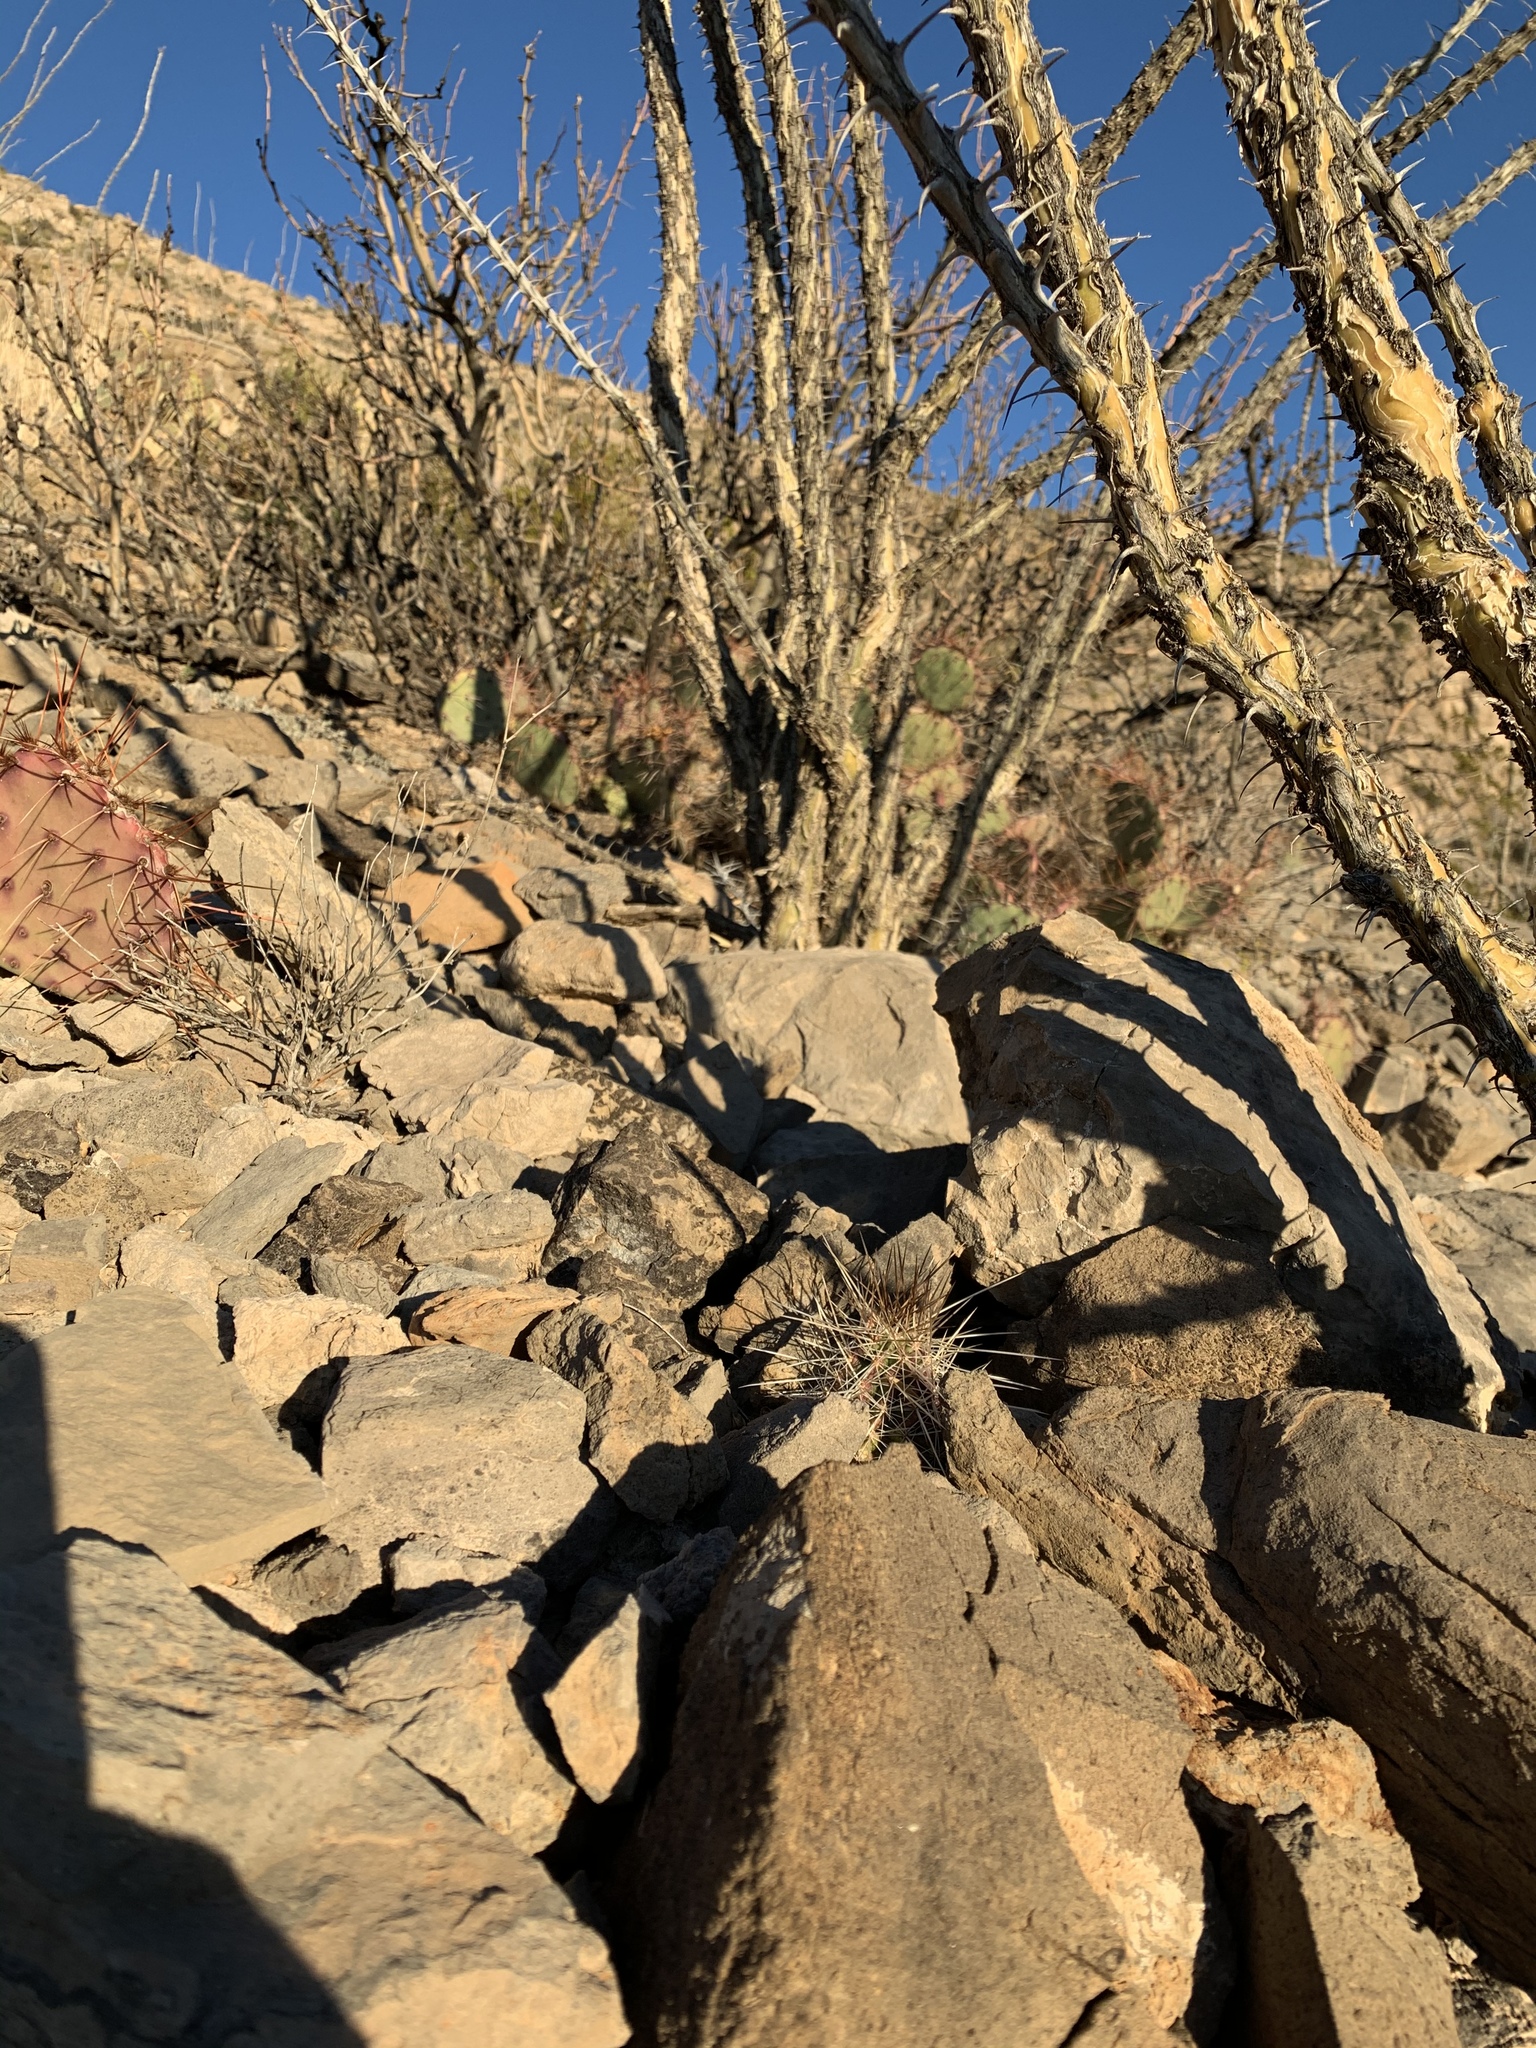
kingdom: Plantae
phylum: Tracheophyta
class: Magnoliopsida
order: Caryophyllales
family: Cactaceae
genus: Echinocereus
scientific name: Echinocereus stramineus
